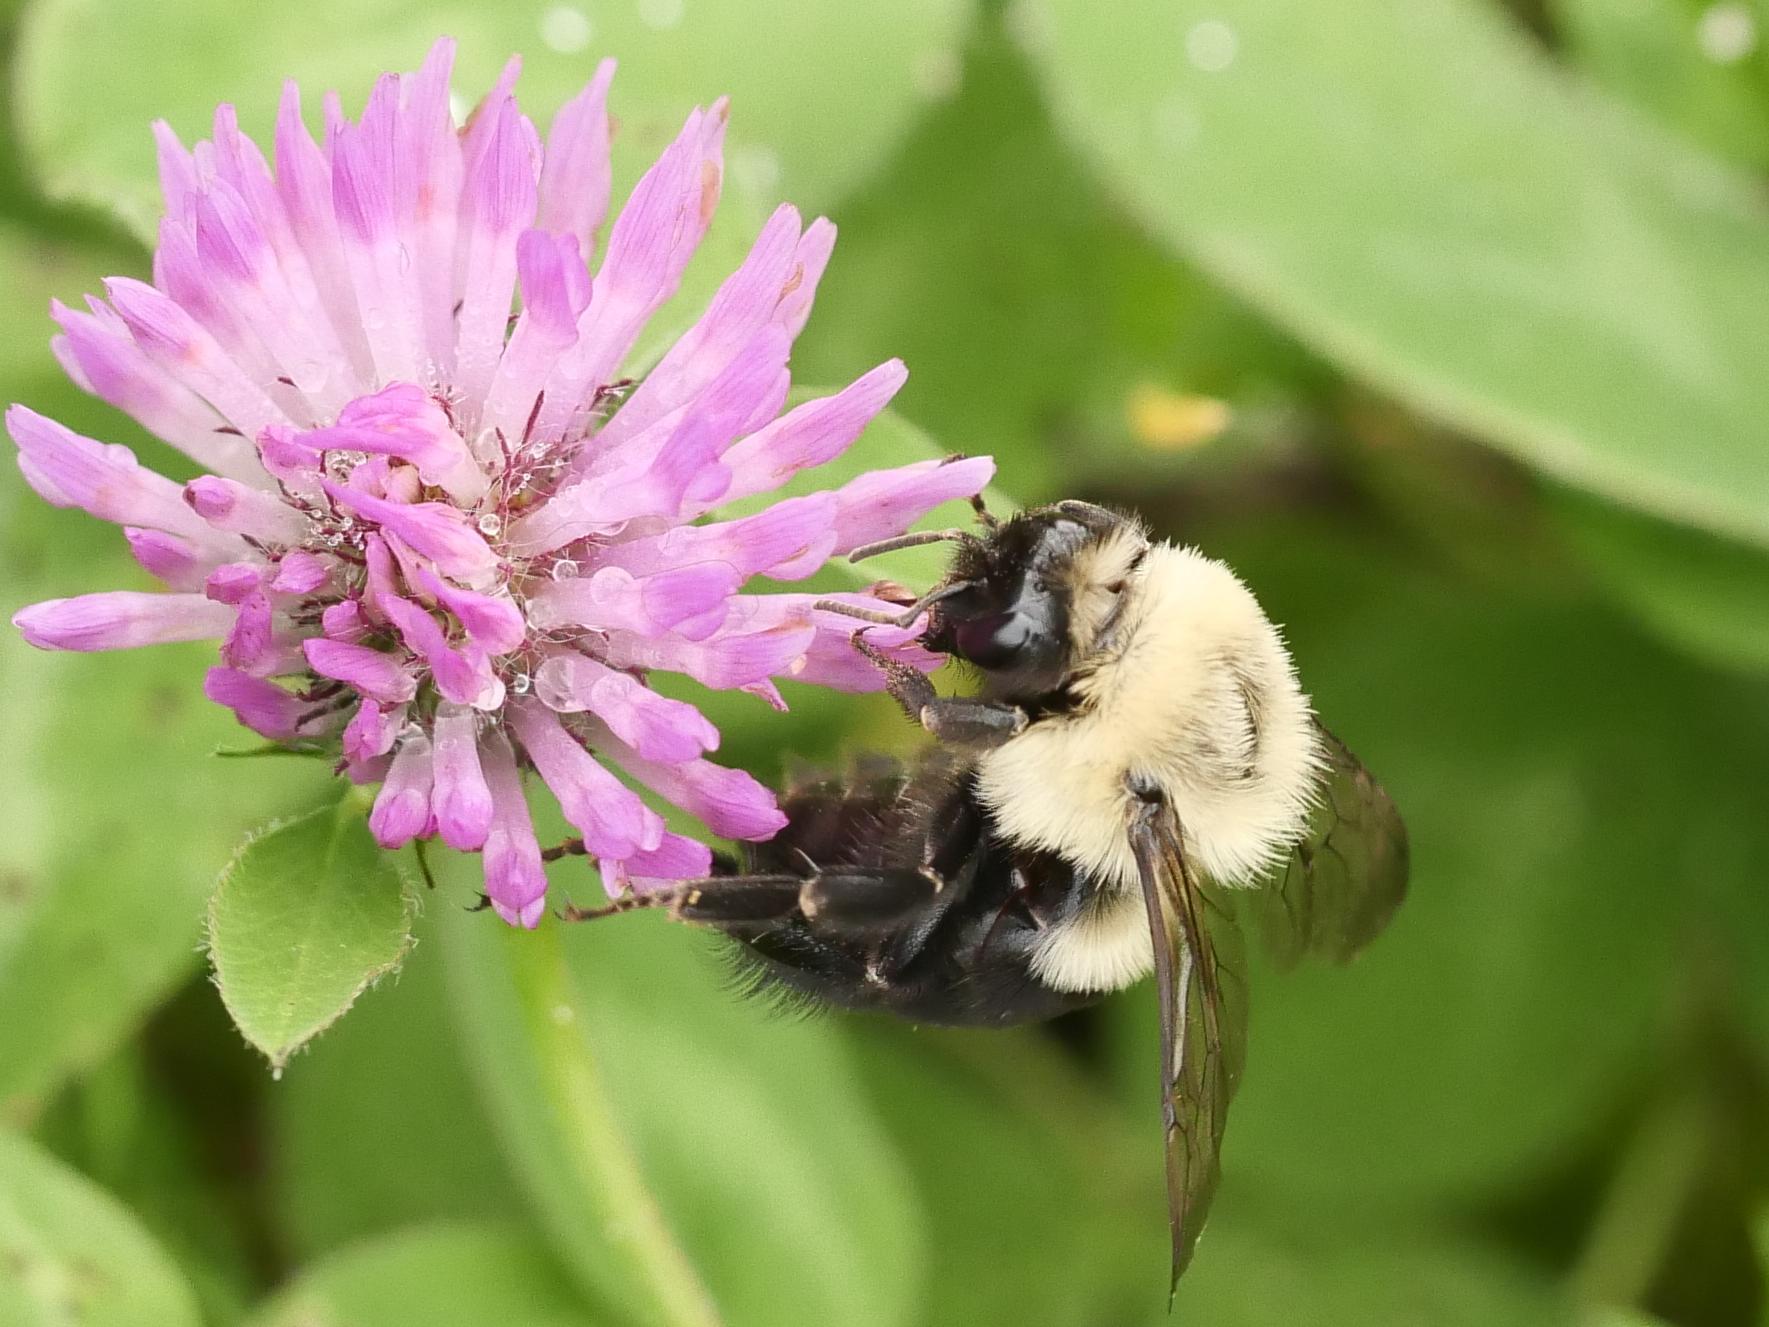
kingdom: Animalia
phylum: Arthropoda
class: Insecta
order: Hymenoptera
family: Apidae
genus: Bombus
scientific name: Bombus impatiens
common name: Common eastern bumble bee
